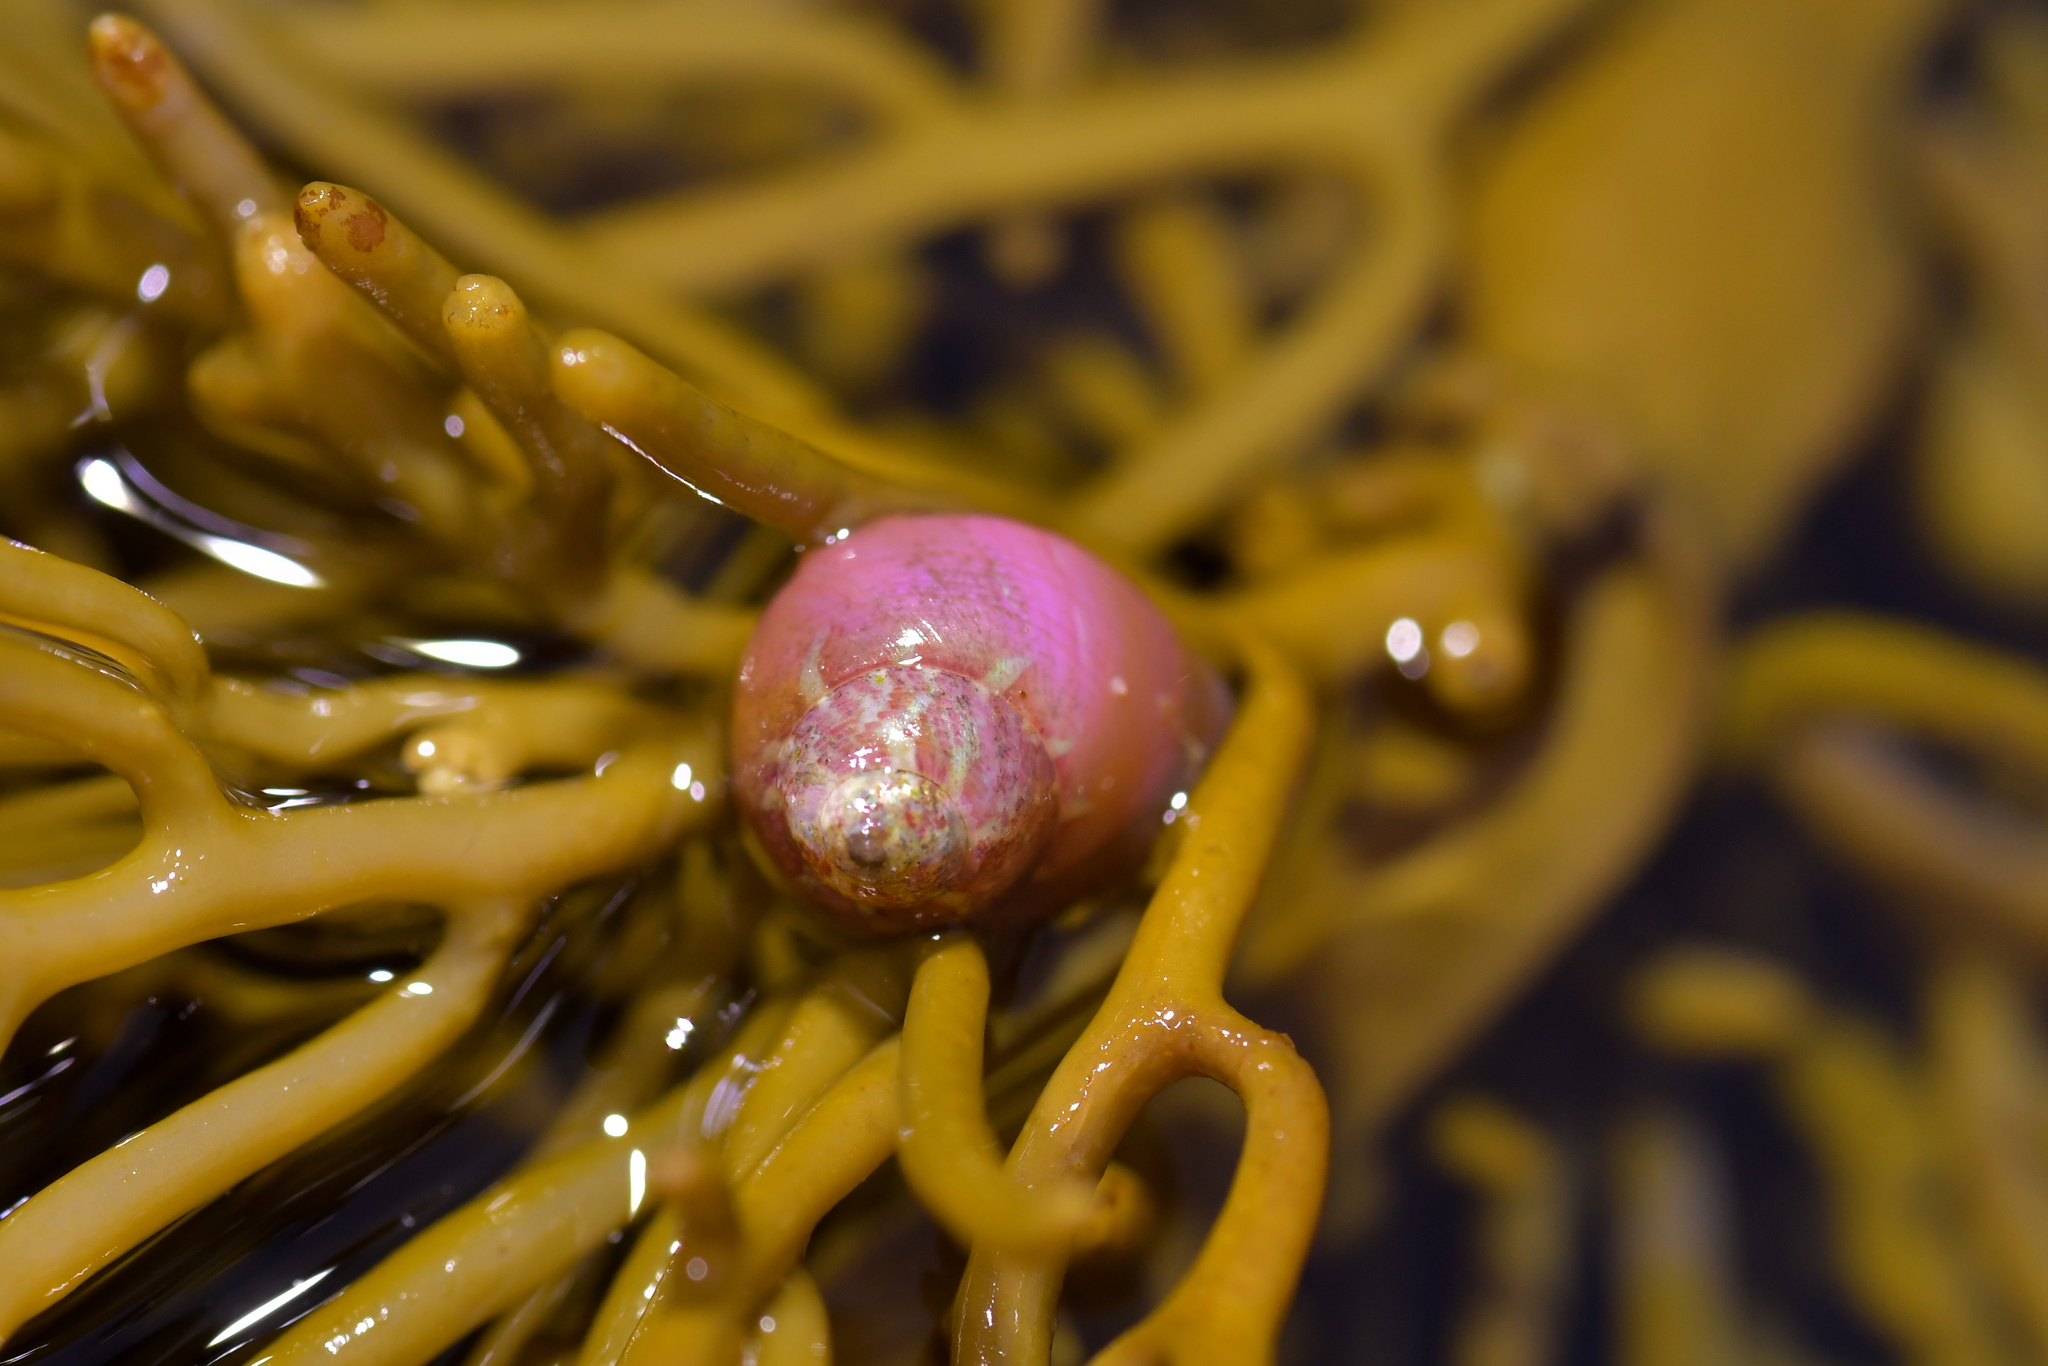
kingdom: Animalia
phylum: Mollusca
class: Gastropoda
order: Trochida
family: Trochidae
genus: Cantharidus
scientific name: Cantharidus dilatatus
